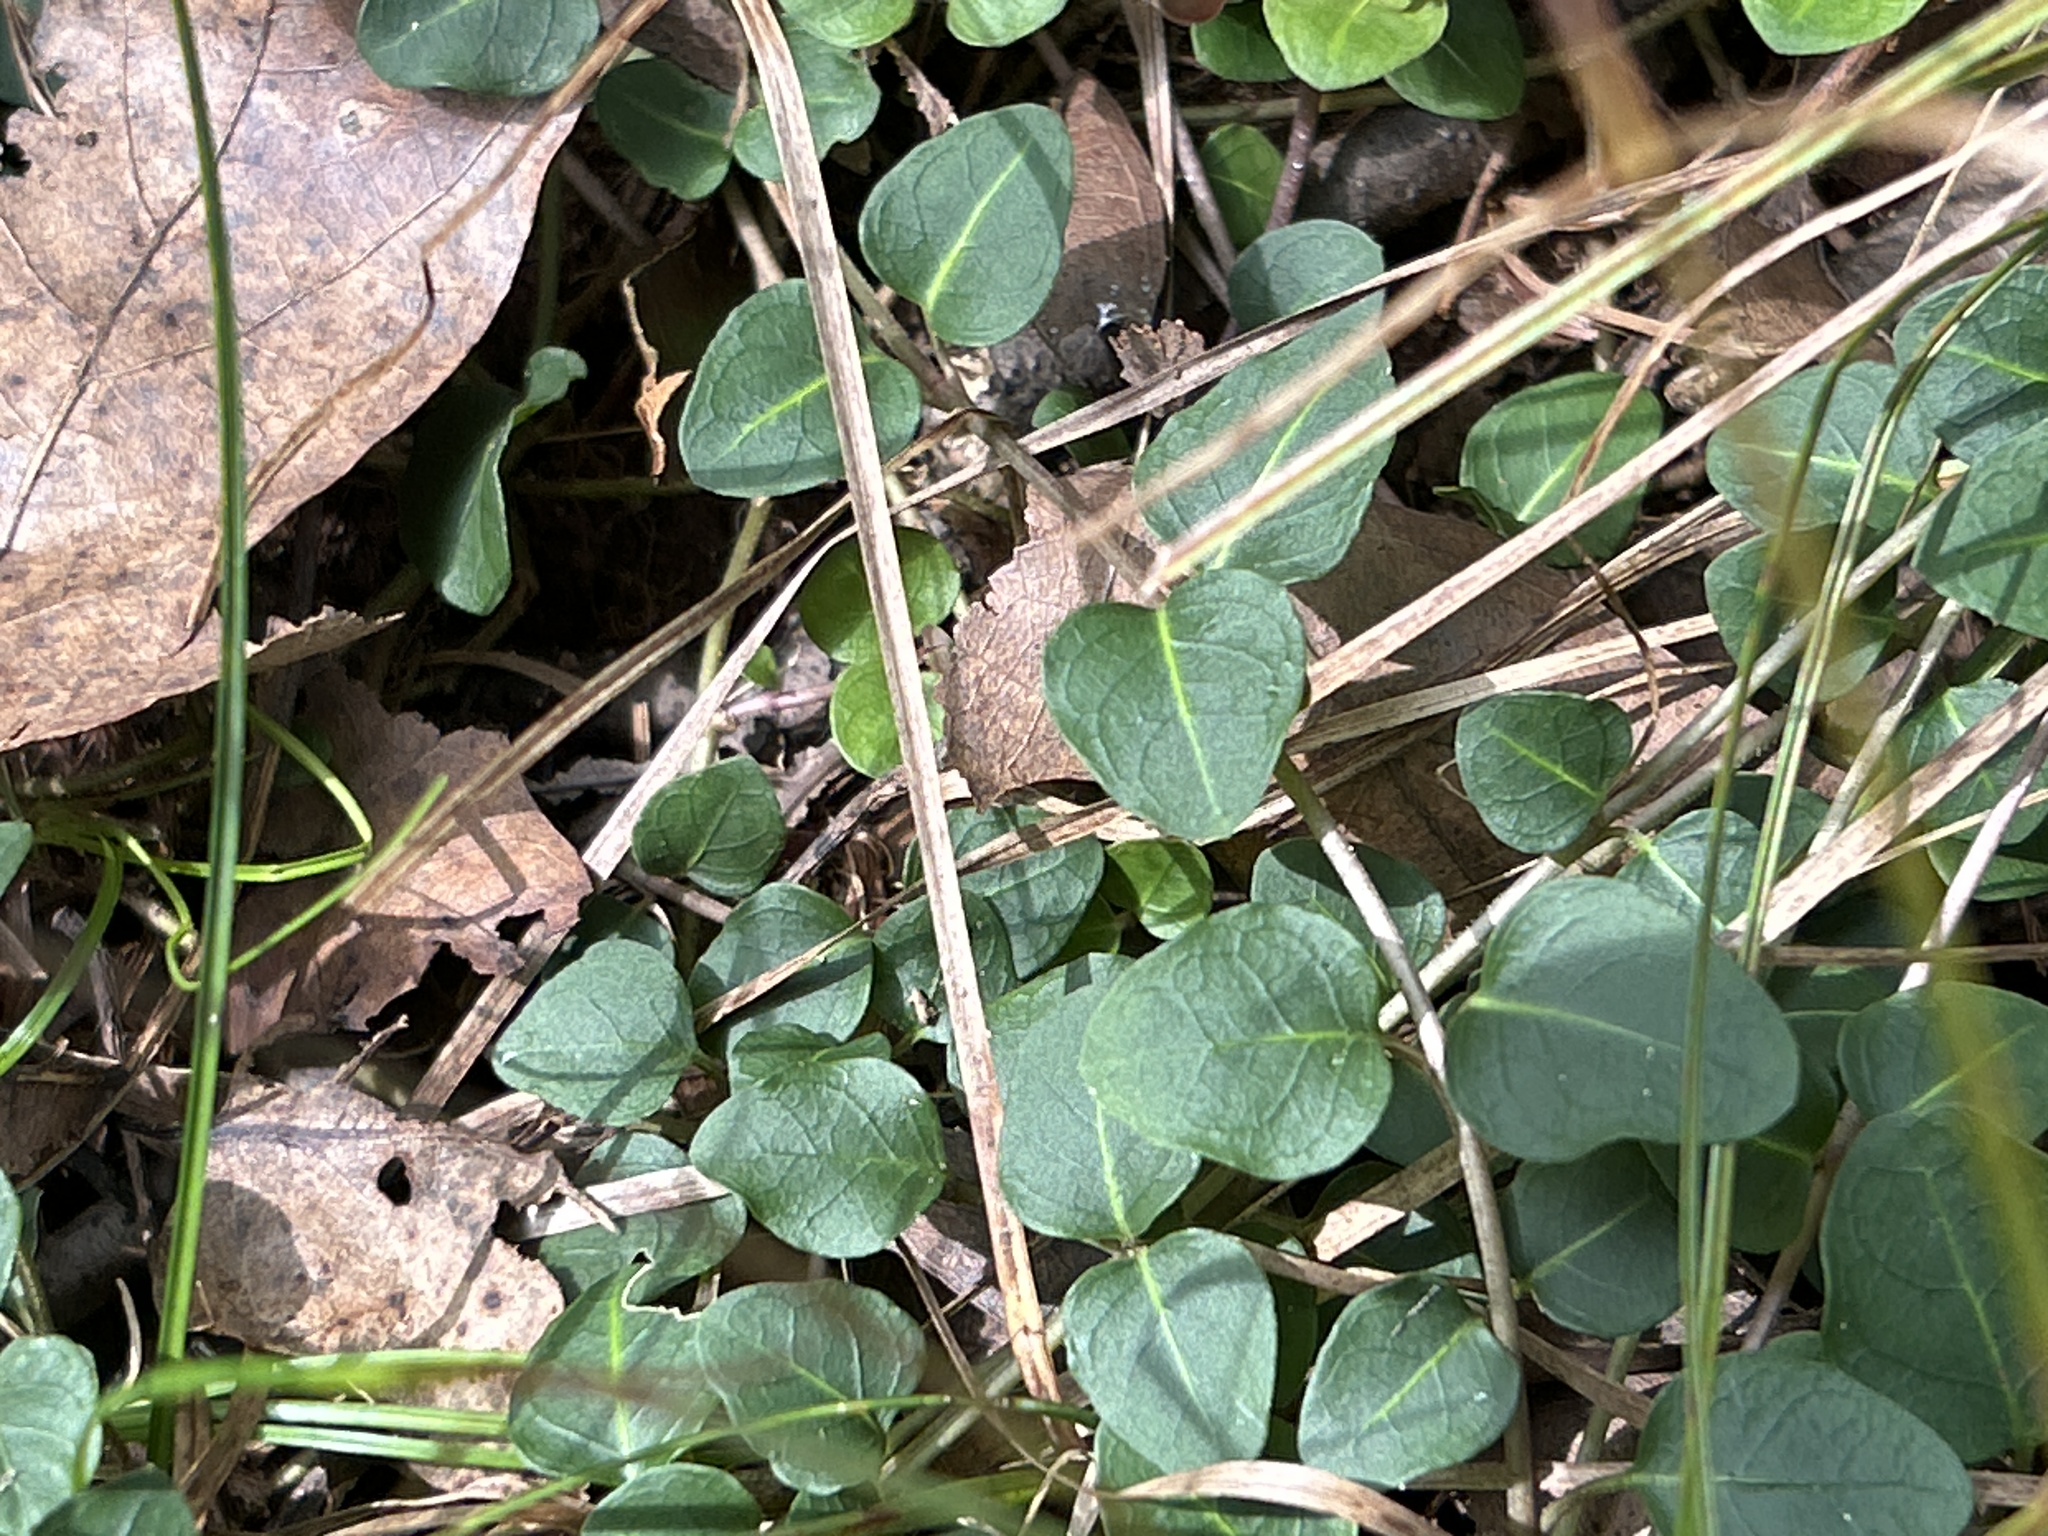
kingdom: Plantae
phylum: Tracheophyta
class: Magnoliopsida
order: Gentianales
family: Rubiaceae
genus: Mitchella
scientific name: Mitchella repens
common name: Partridge-berry
